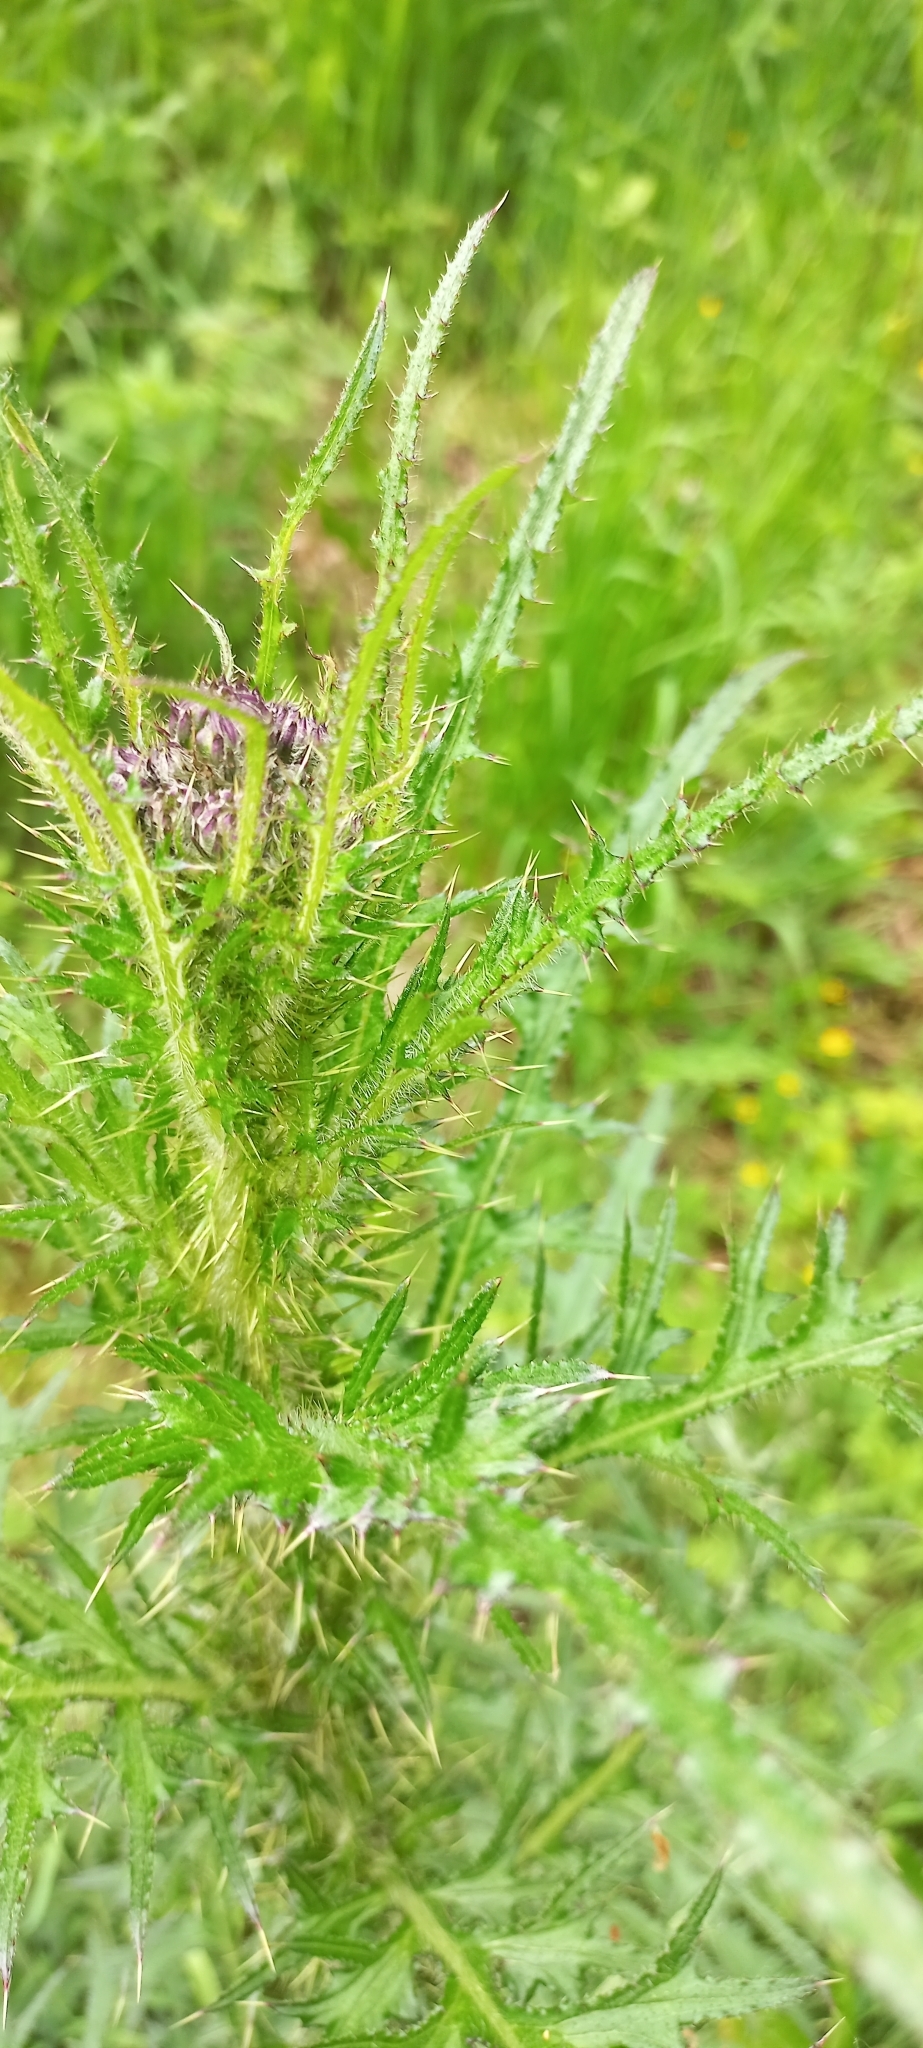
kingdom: Plantae
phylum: Tracheophyta
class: Magnoliopsida
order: Asterales
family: Asteraceae
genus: Cirsium
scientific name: Cirsium palustre
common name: Marsh thistle
